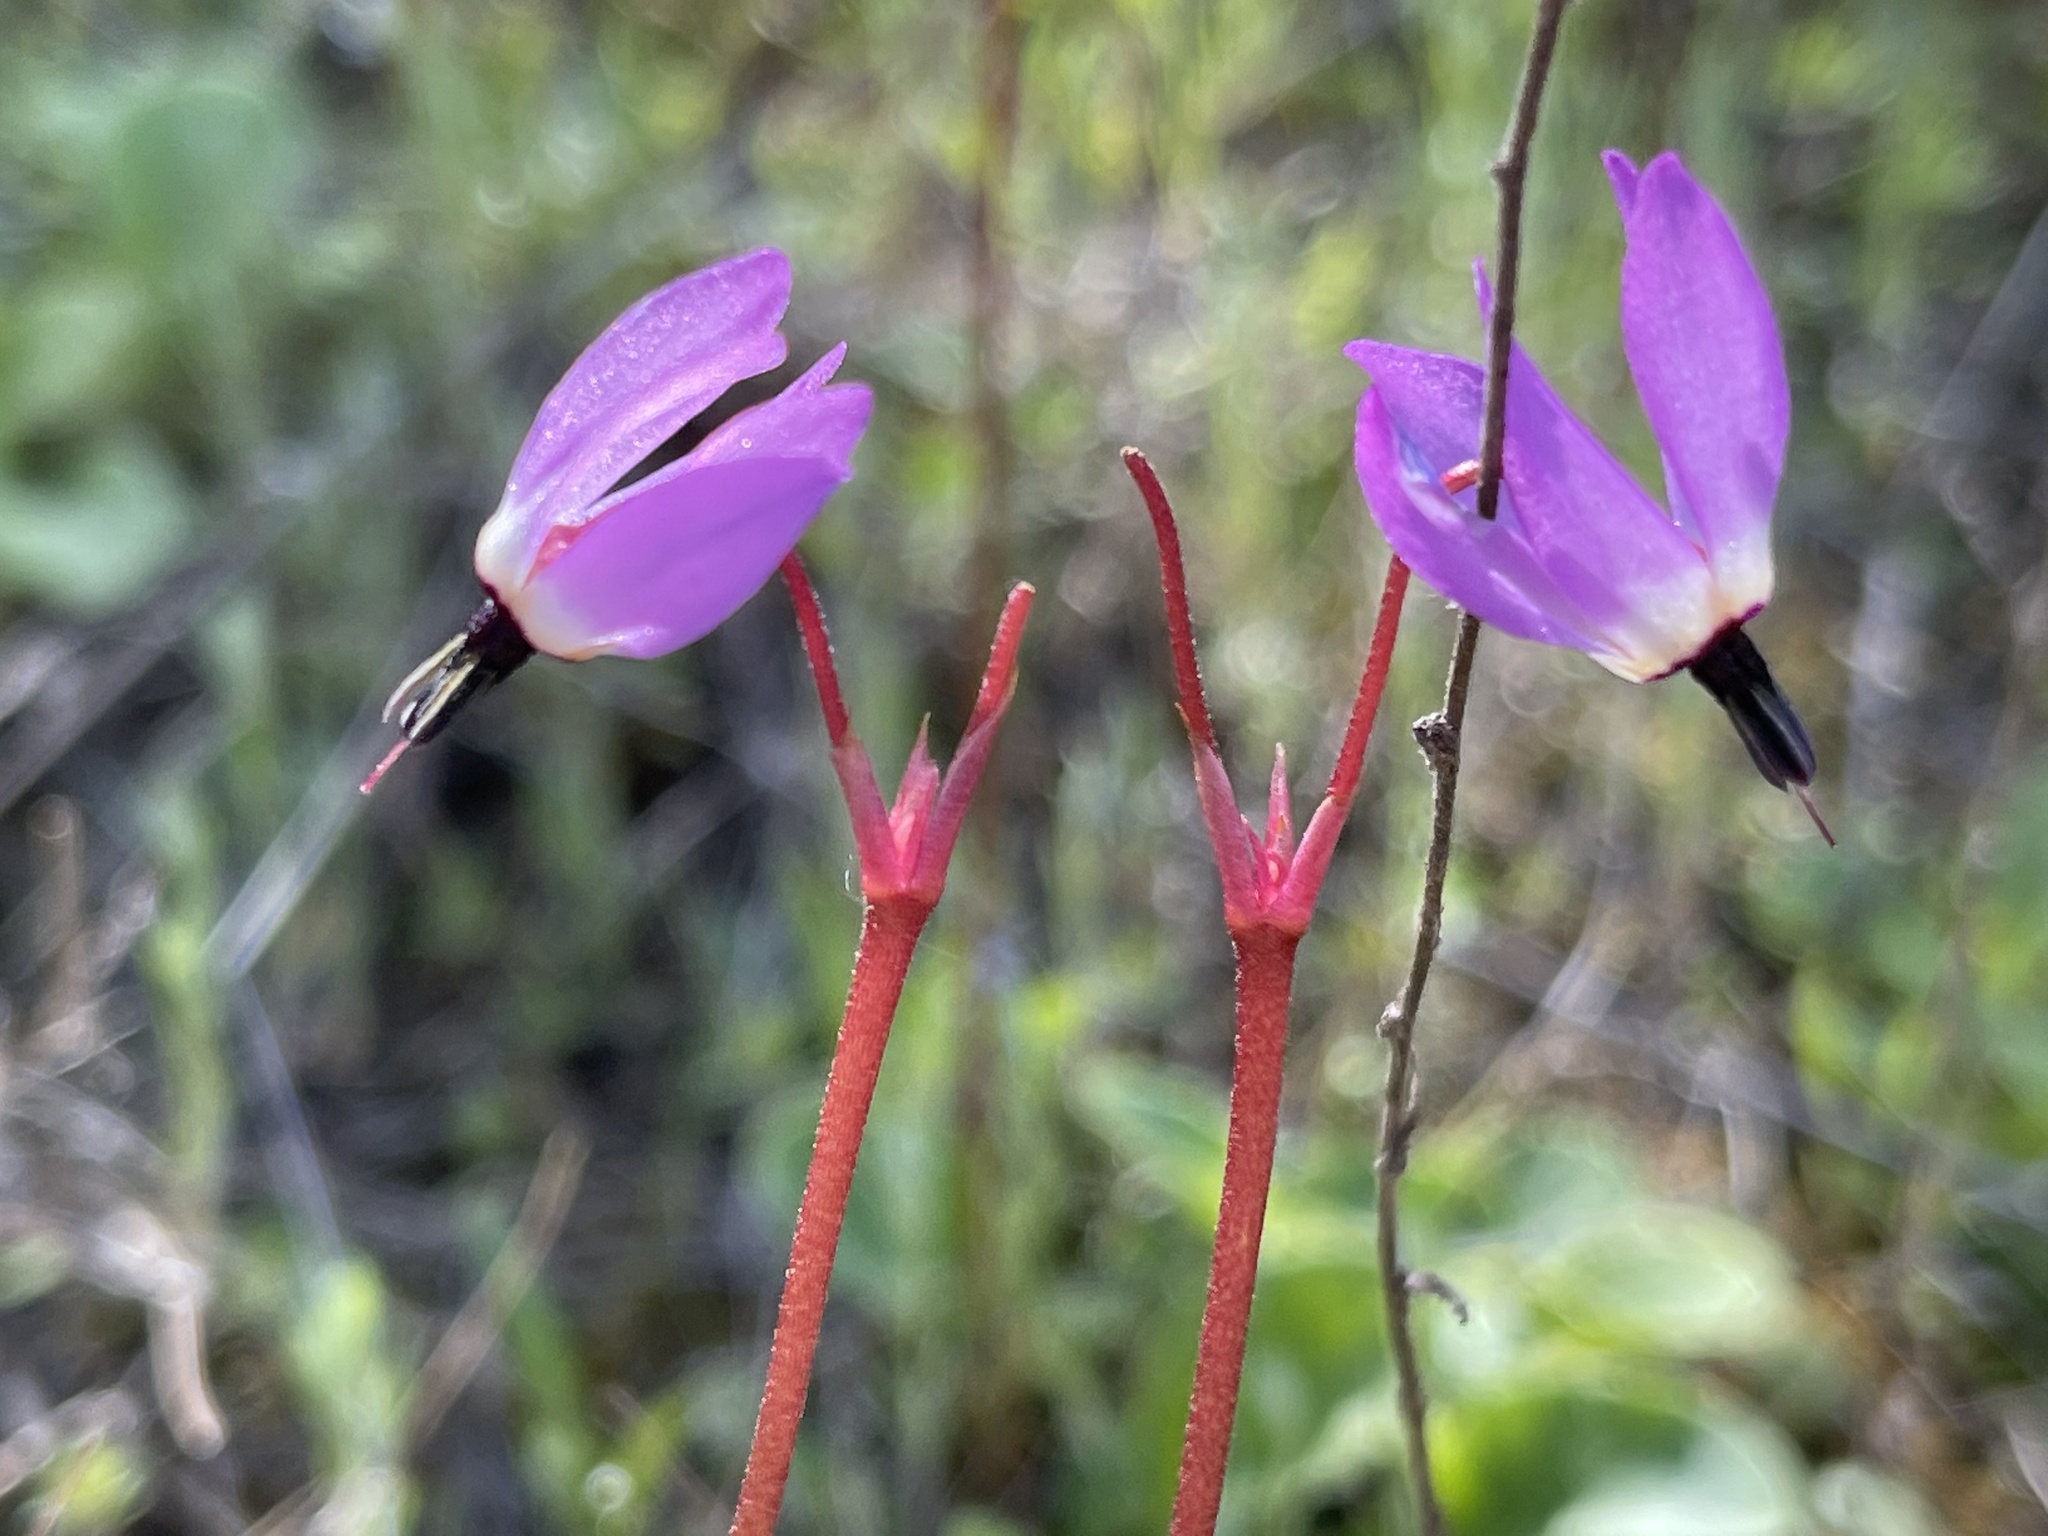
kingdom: Plantae
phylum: Tracheophyta
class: Magnoliopsida
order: Ericales
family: Primulaceae
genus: Dodecatheon
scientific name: Dodecatheon hendersonii
